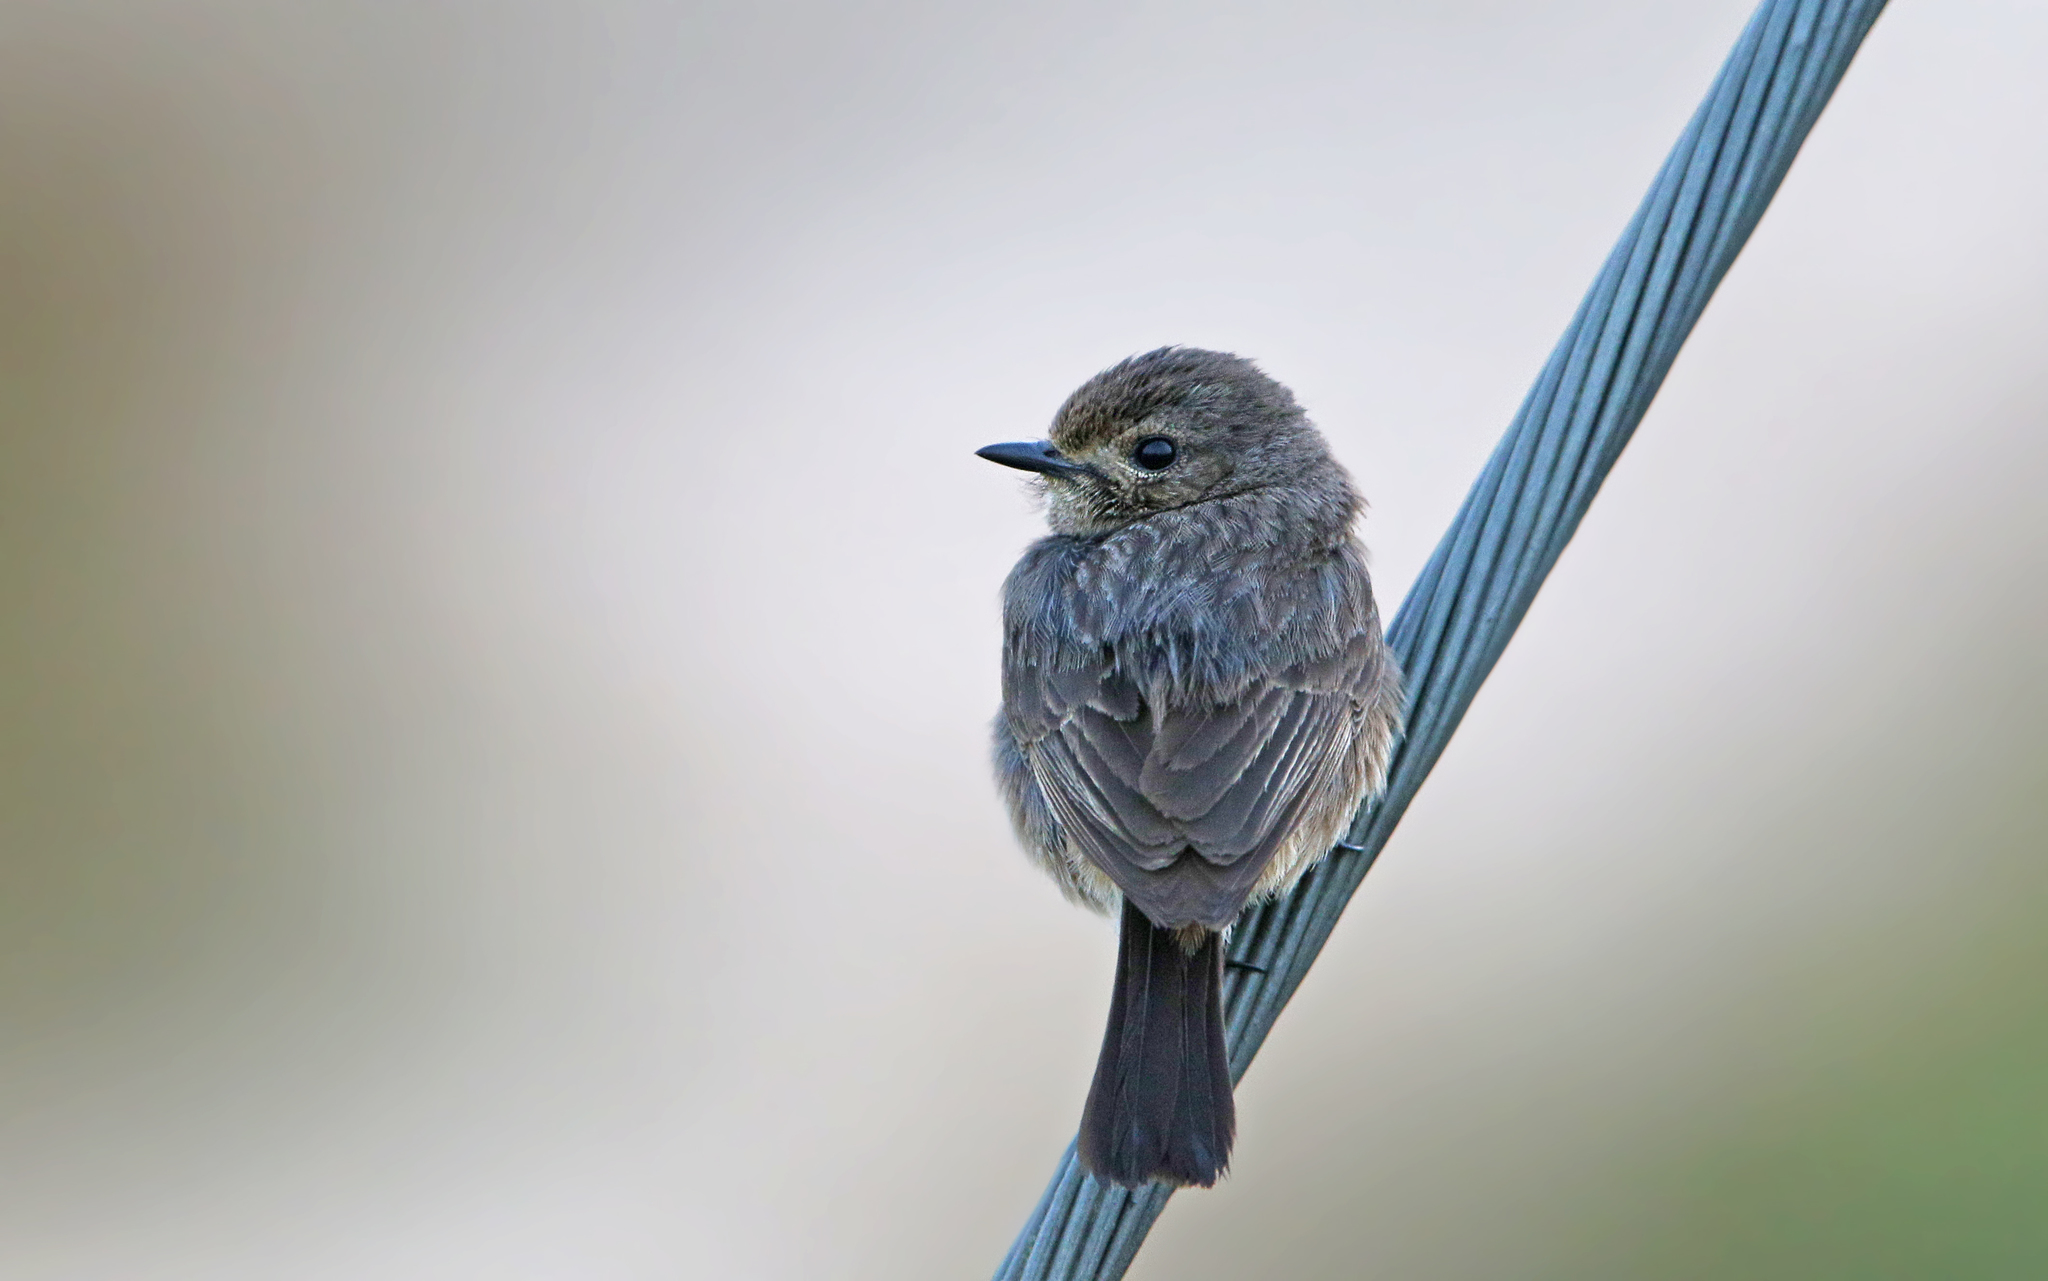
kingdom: Animalia
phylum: Chordata
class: Aves
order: Passeriformes
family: Muscicapidae
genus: Saxicola
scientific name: Saxicola caprata
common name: Pied bush chat
